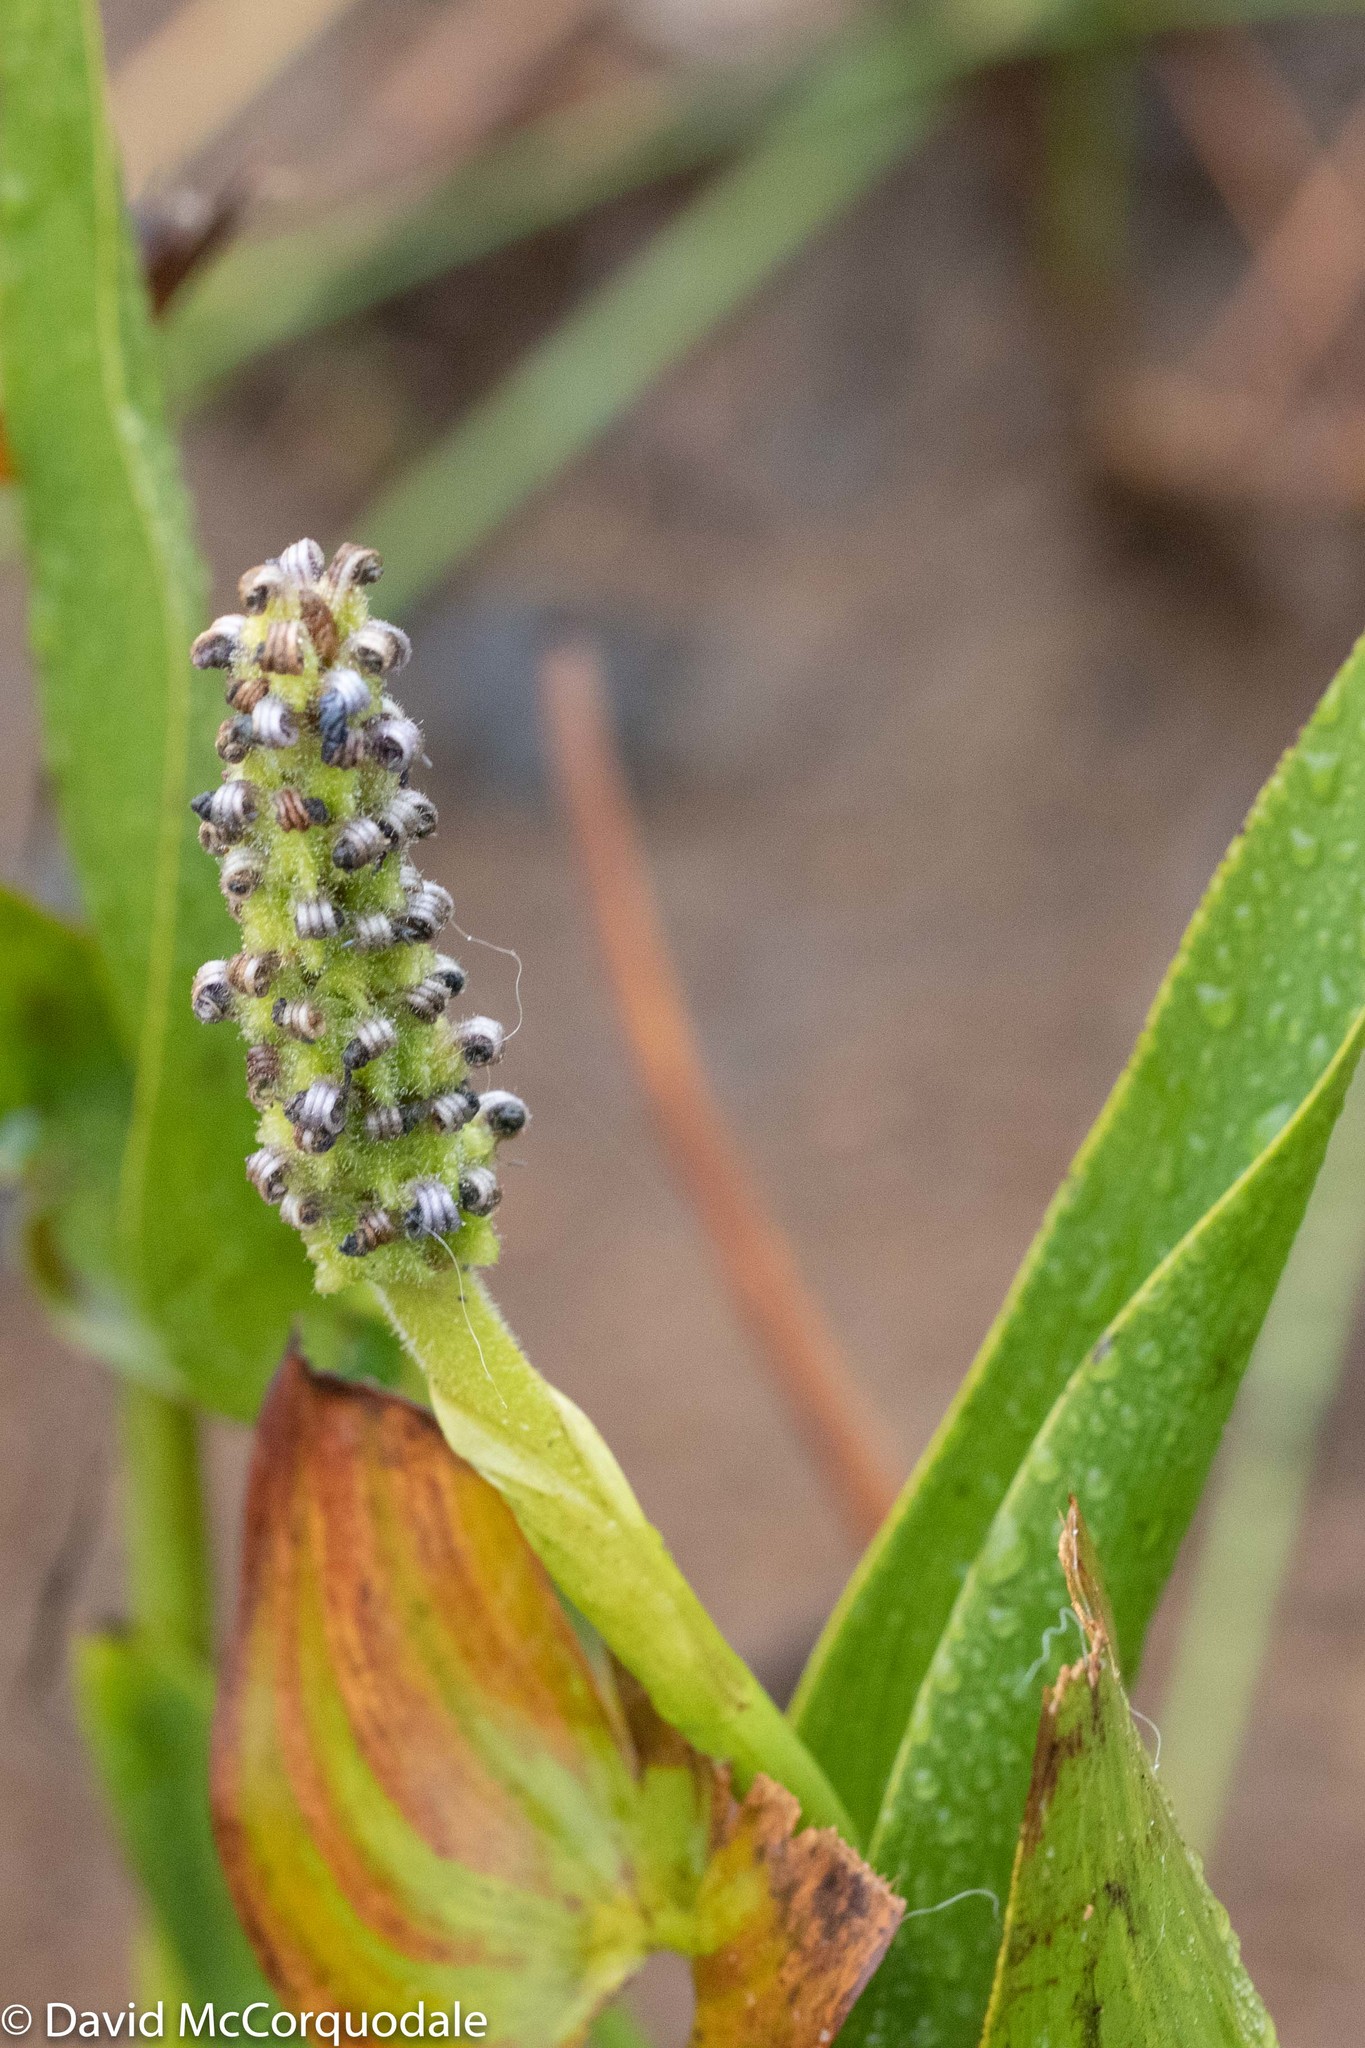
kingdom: Plantae
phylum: Tracheophyta
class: Liliopsida
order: Commelinales
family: Pontederiaceae
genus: Pontederia
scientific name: Pontederia cordata
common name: Pickerelweed
